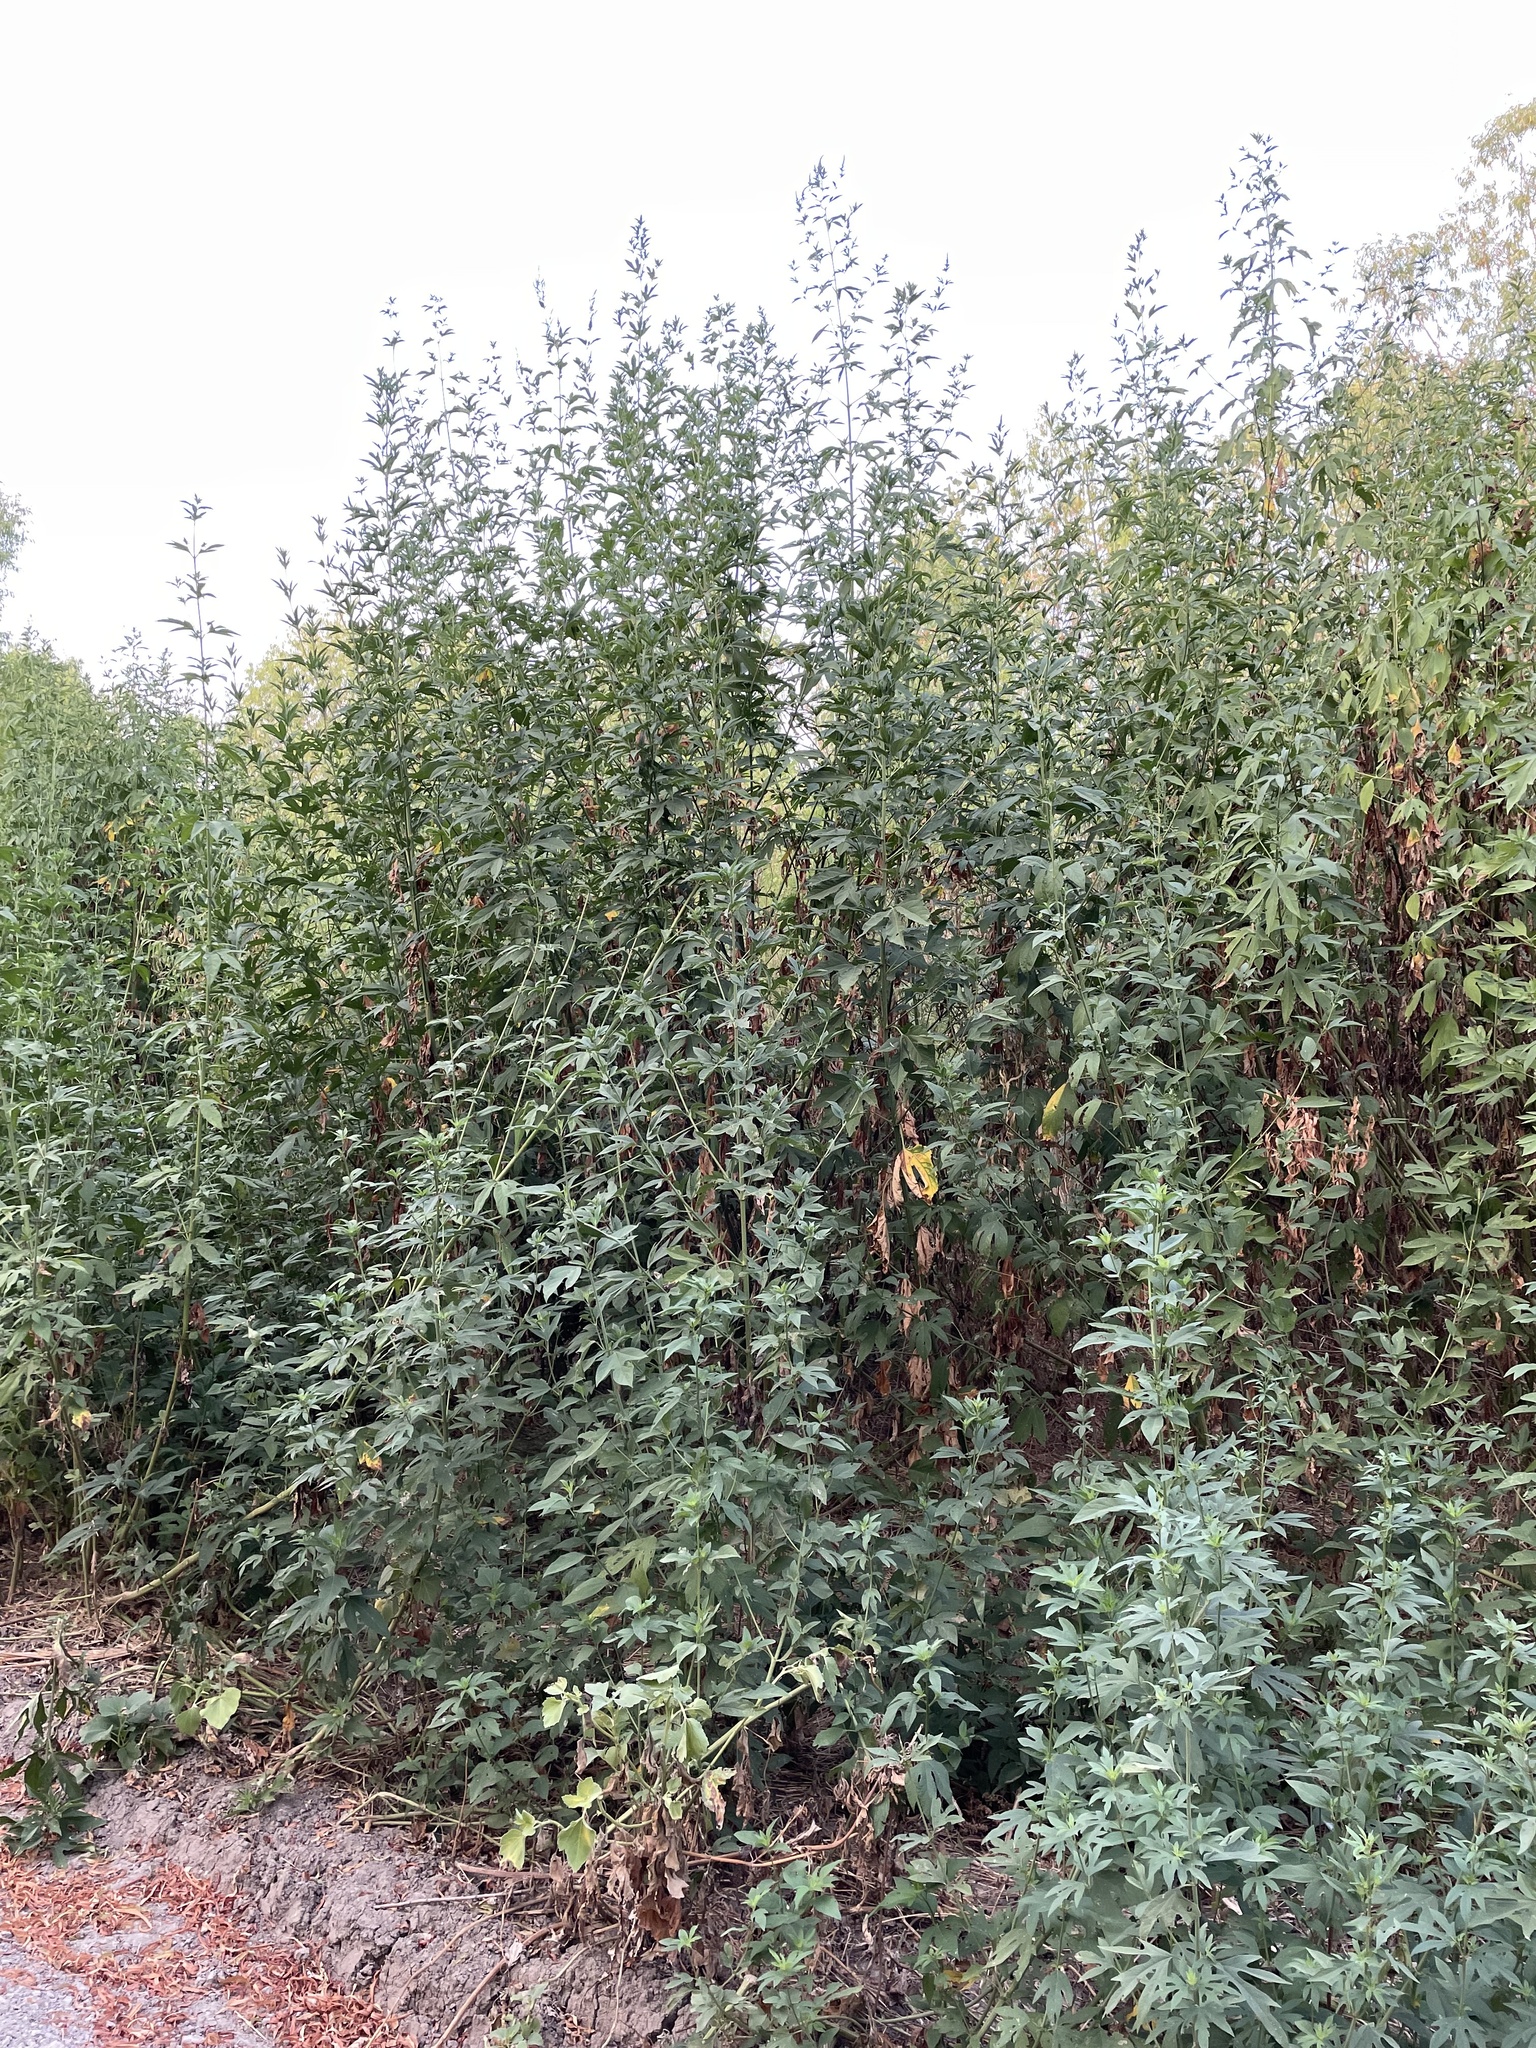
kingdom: Plantae
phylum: Tracheophyta
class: Magnoliopsida
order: Asterales
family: Asteraceae
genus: Ambrosia
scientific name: Ambrosia trifida
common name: Giant ragweed
